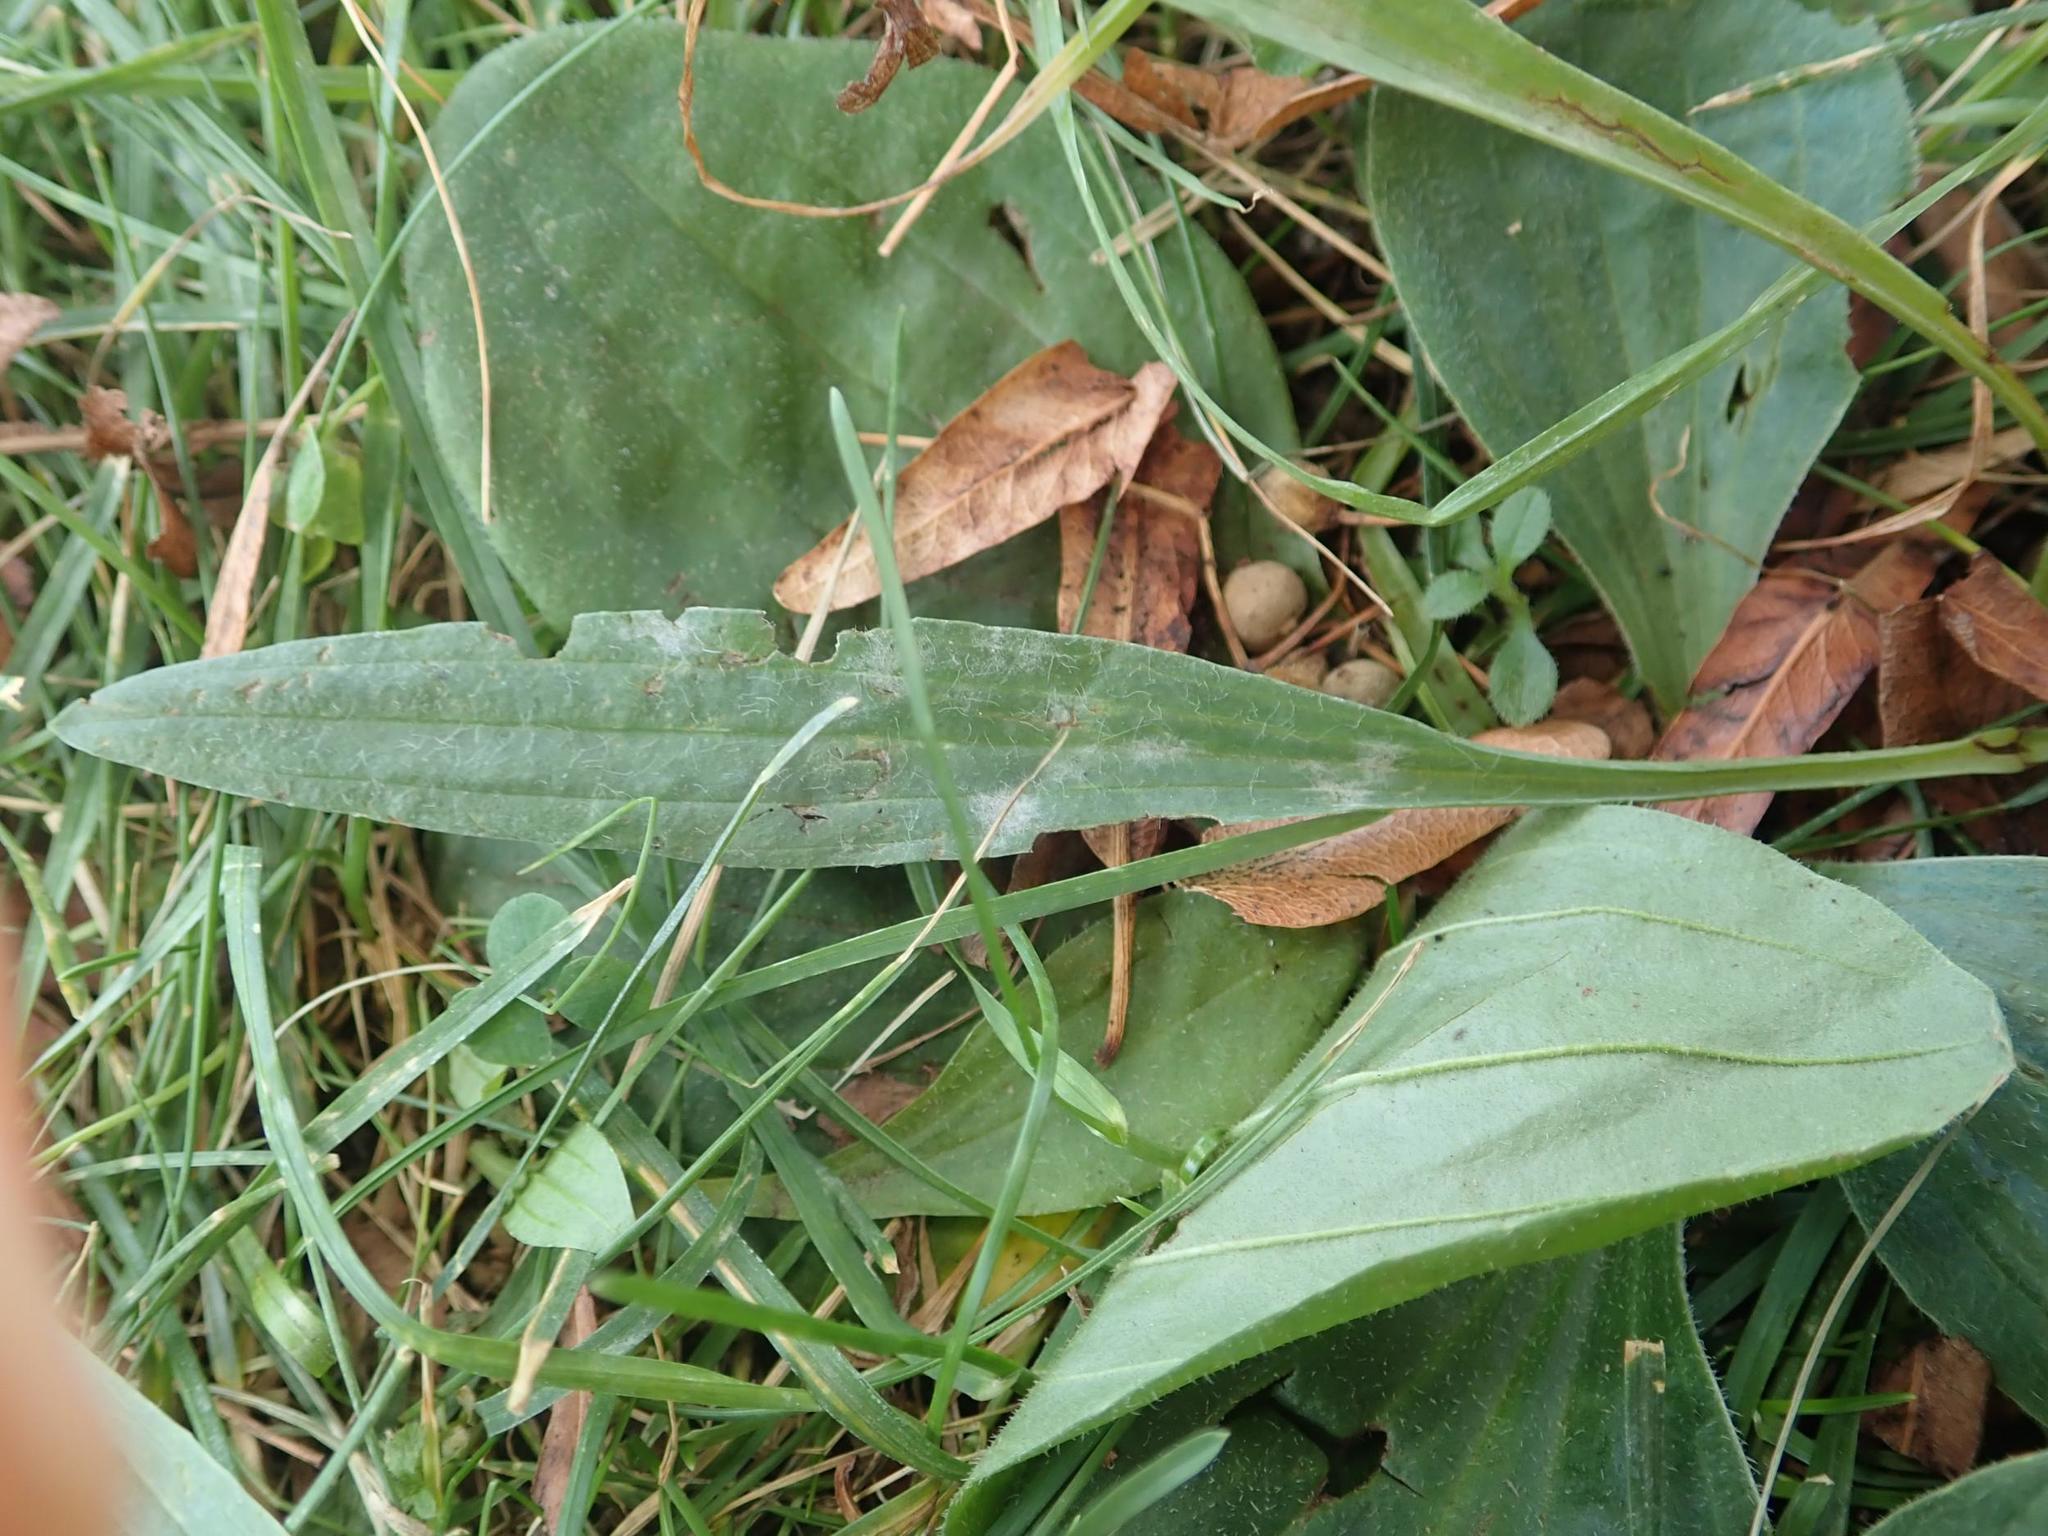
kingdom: Plantae
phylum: Tracheophyta
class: Magnoliopsida
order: Lamiales
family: Plantaginaceae
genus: Plantago
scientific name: Plantago lanceolata
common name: Ribwort plantain
